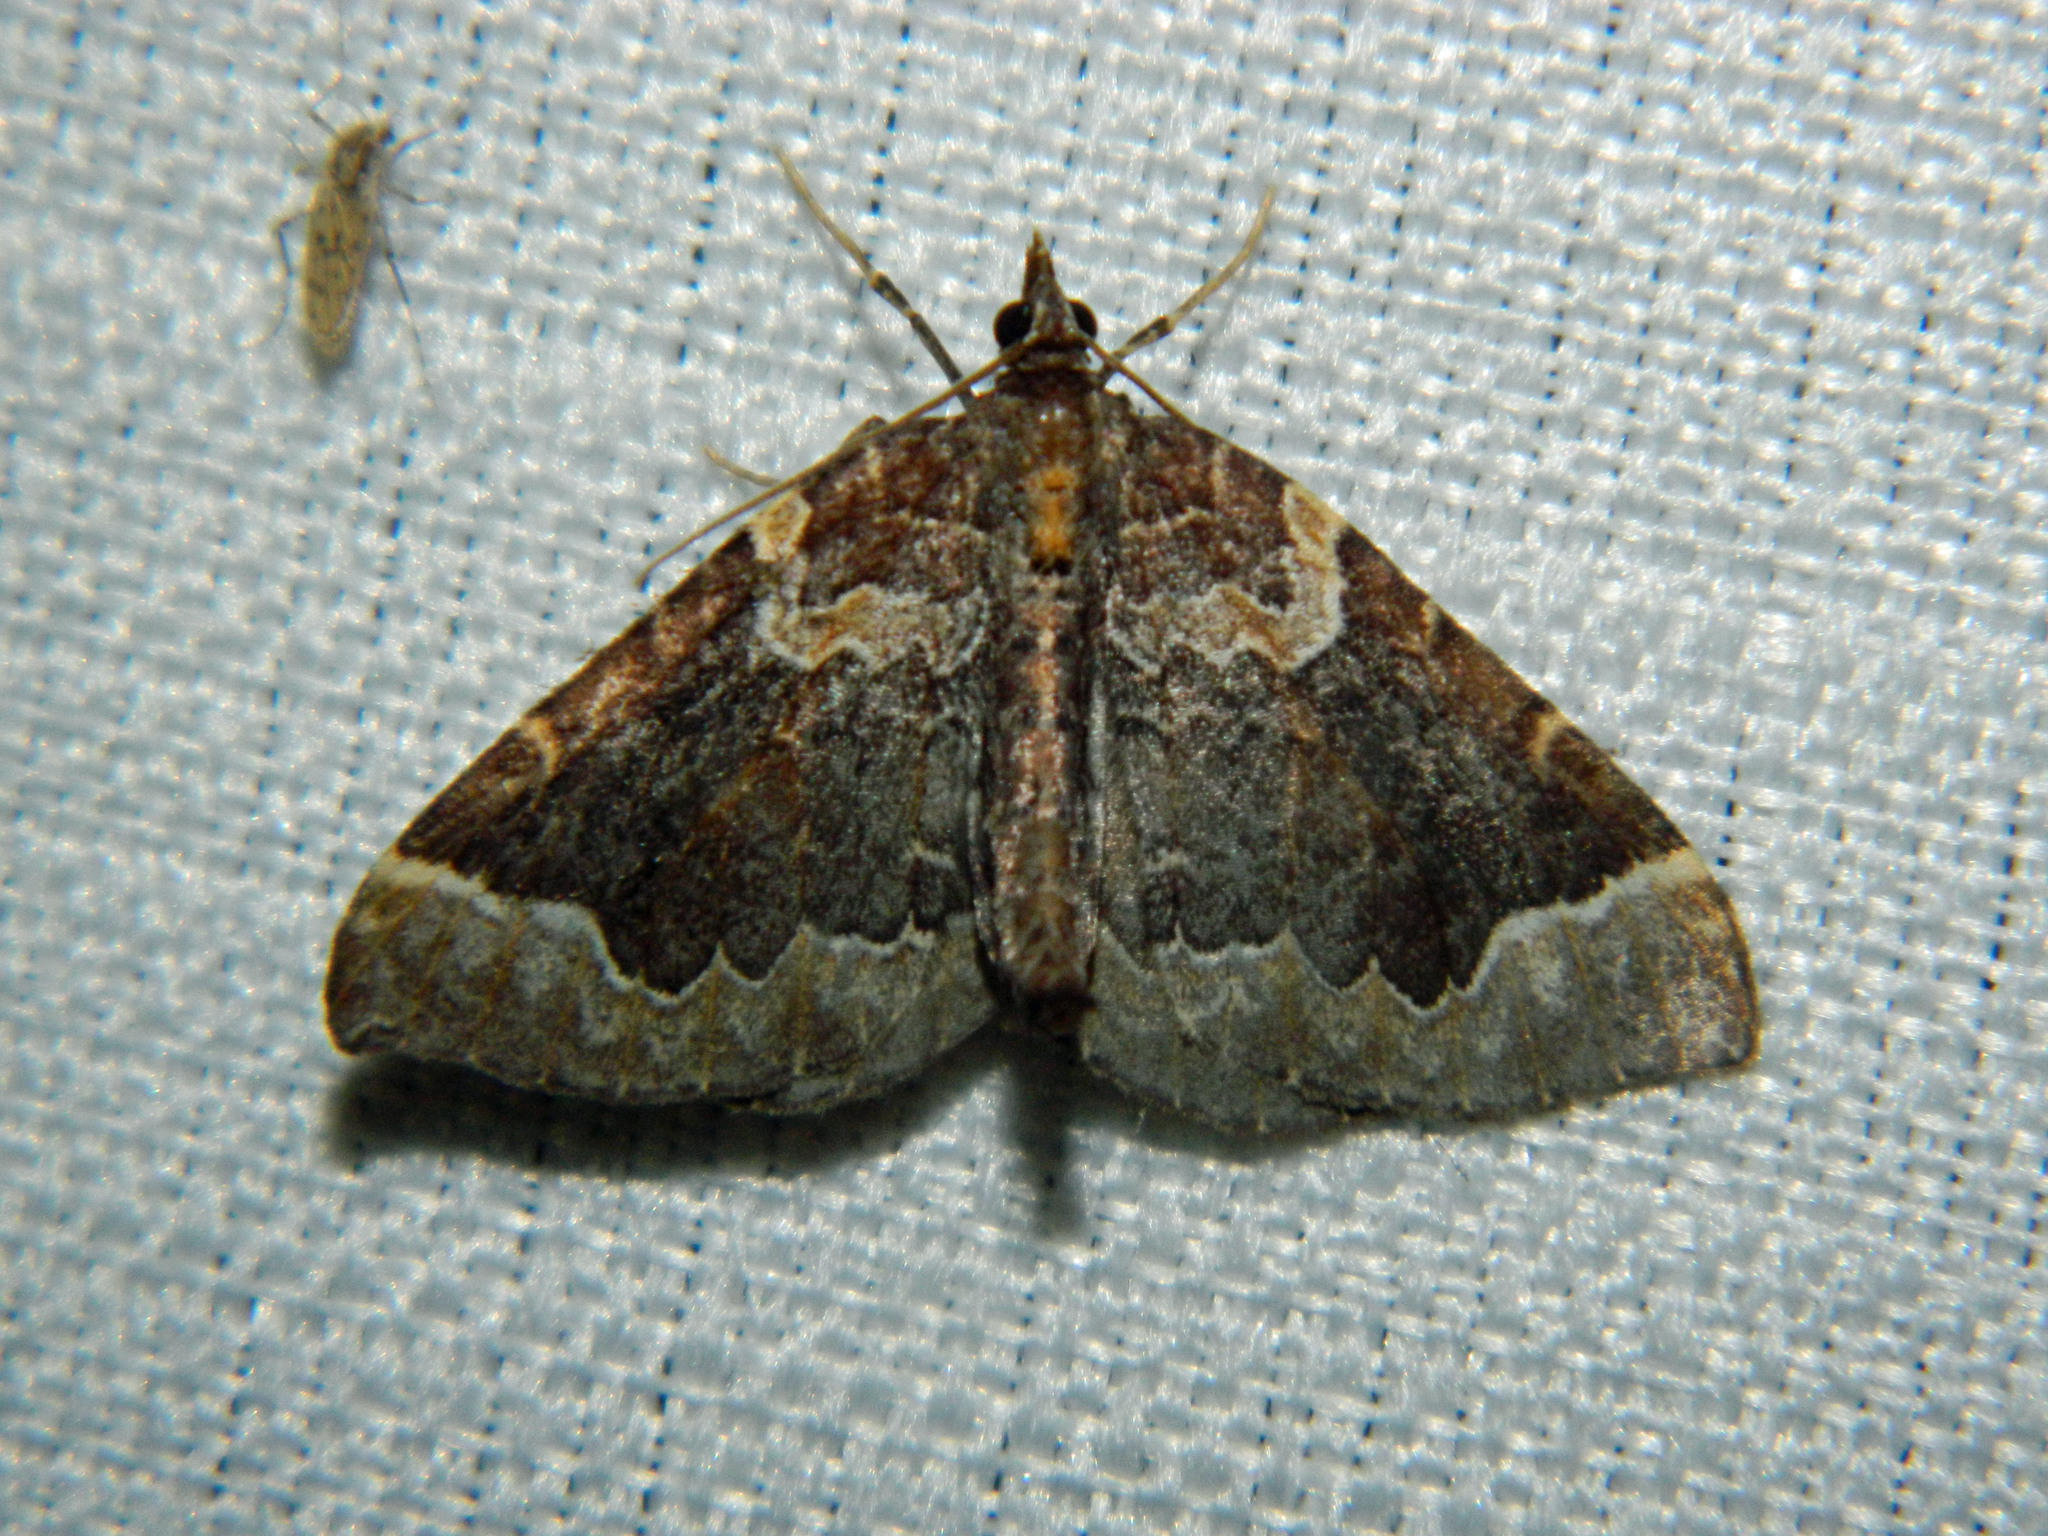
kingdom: Animalia
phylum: Arthropoda
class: Insecta
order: Lepidoptera
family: Geometridae
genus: Eulithis
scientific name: Eulithis flavibrunneata
